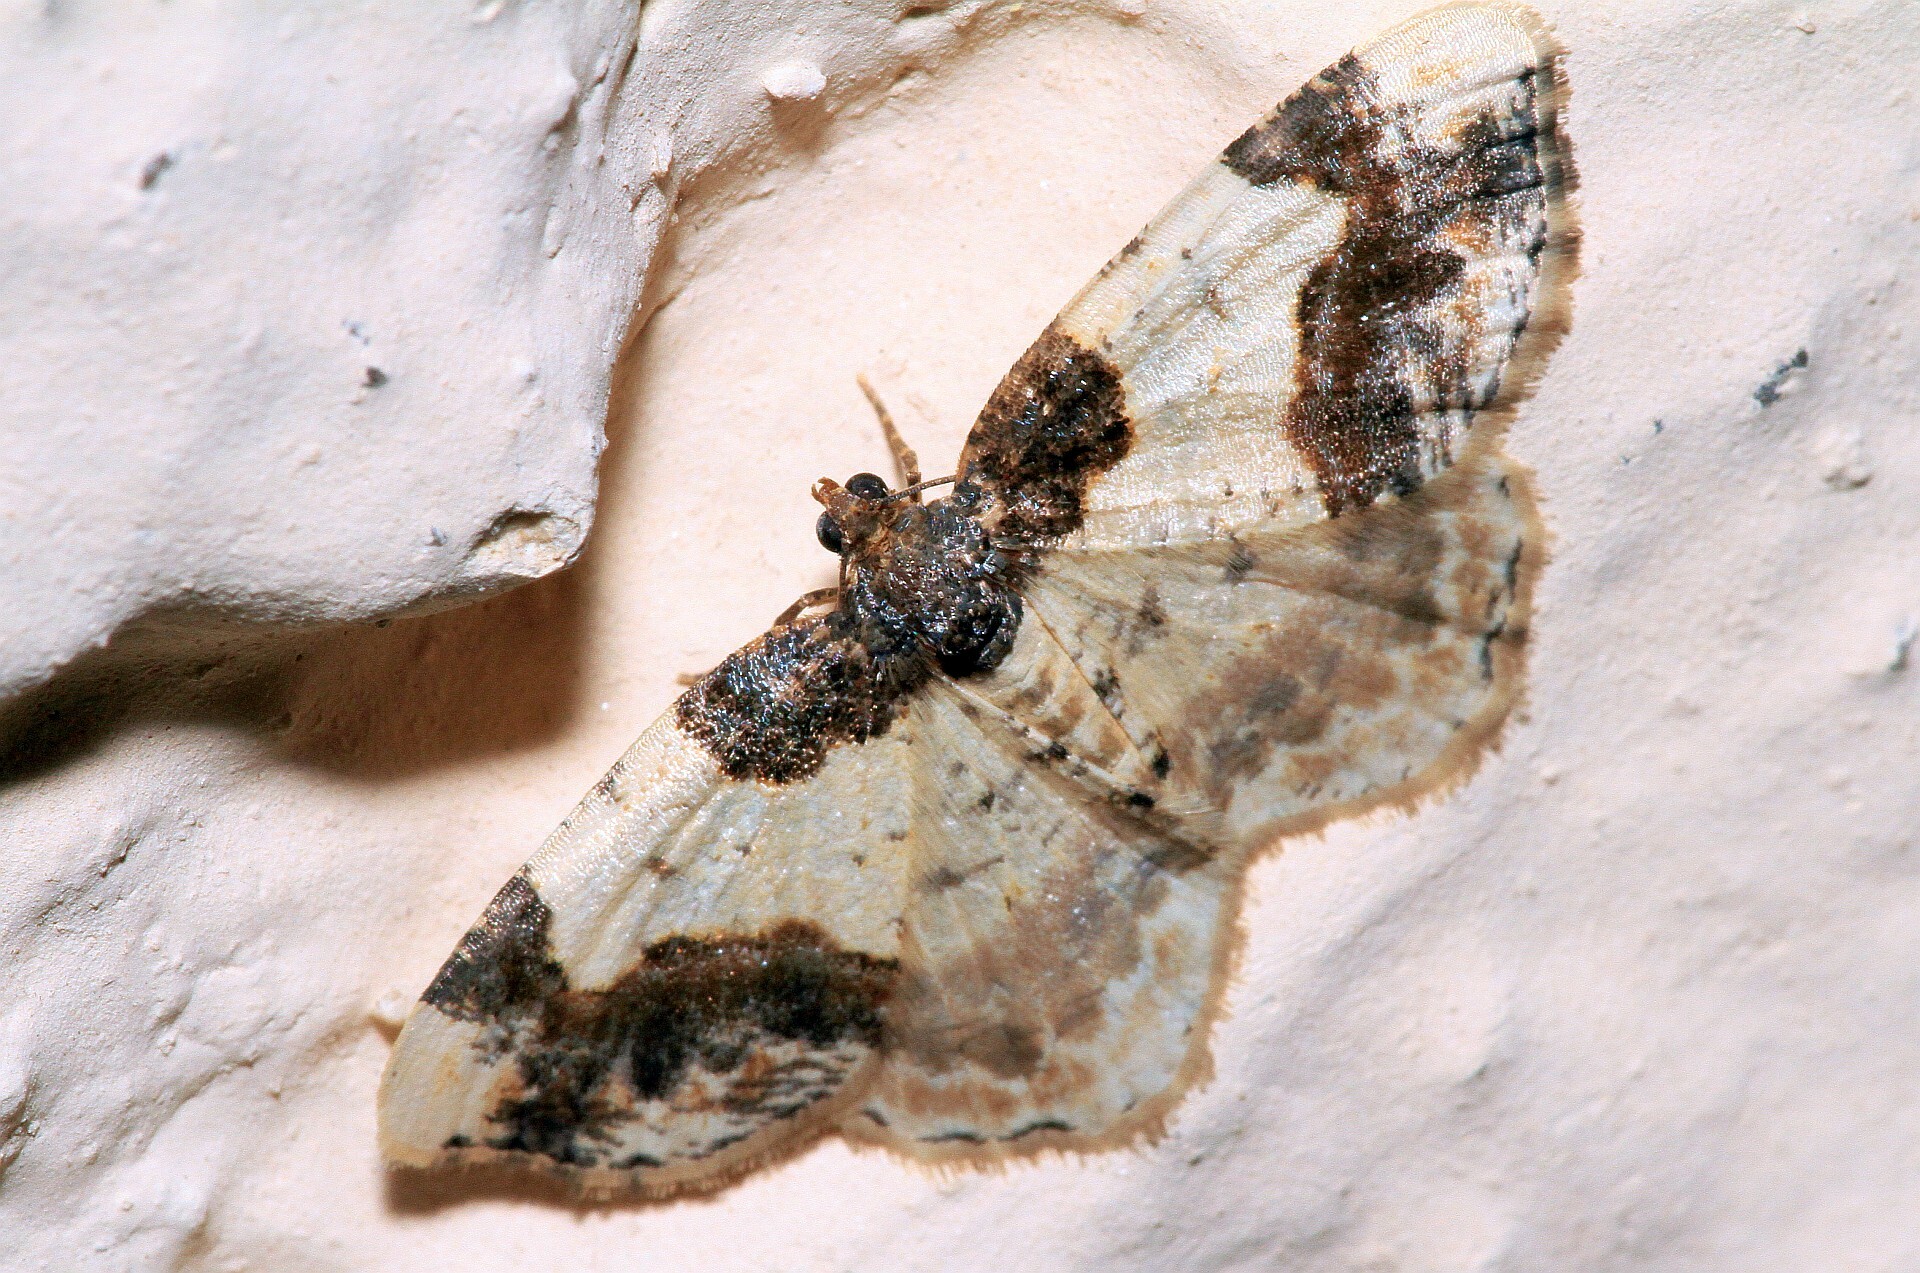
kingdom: Animalia
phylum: Arthropoda
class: Insecta
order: Lepidoptera
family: Geometridae
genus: Ligdia
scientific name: Ligdia adustata
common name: Scorched carpet
